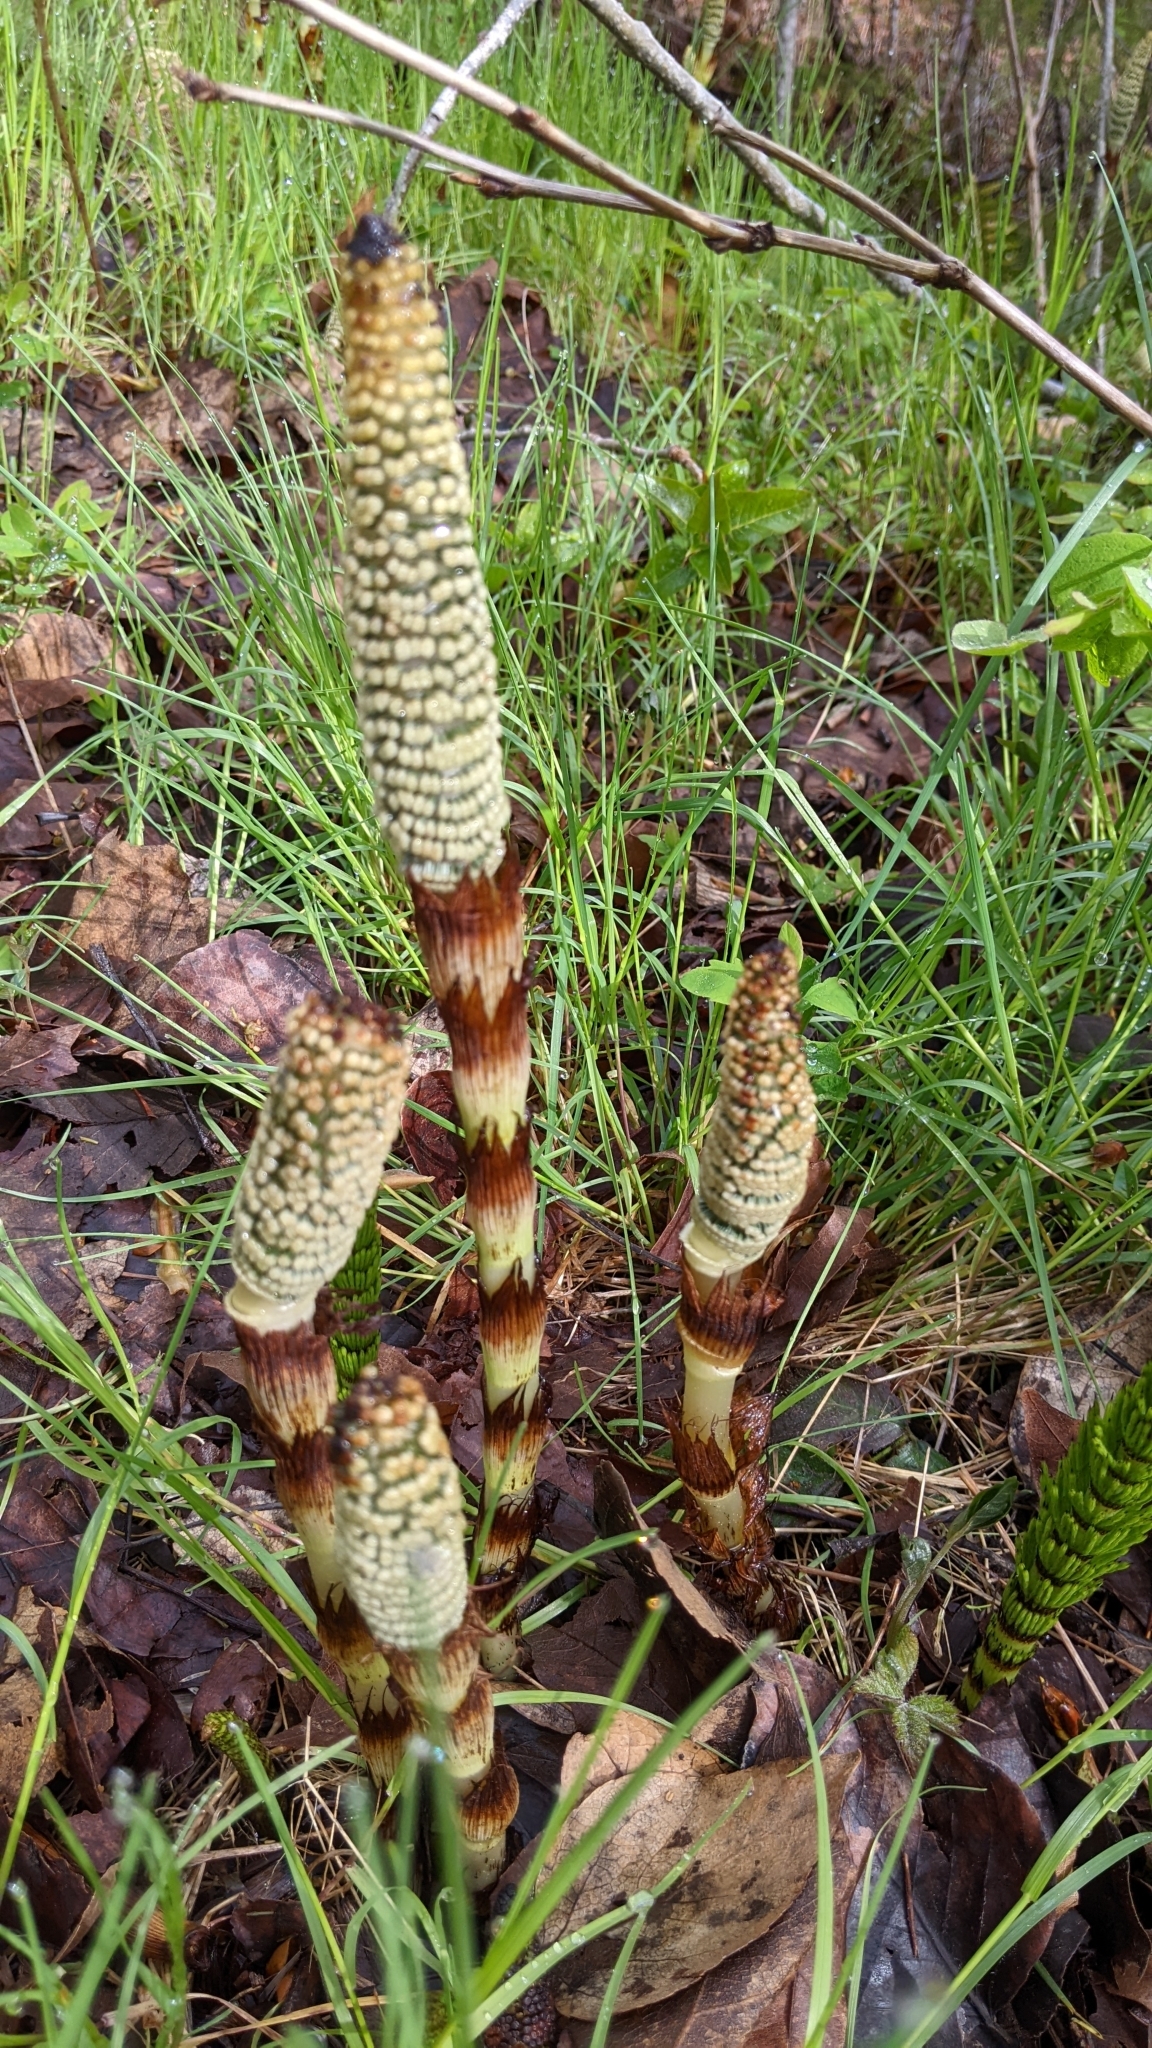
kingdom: Plantae
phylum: Tracheophyta
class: Polypodiopsida
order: Equisetales
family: Equisetaceae
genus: Equisetum
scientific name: Equisetum braunii
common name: Braun's horsetail
